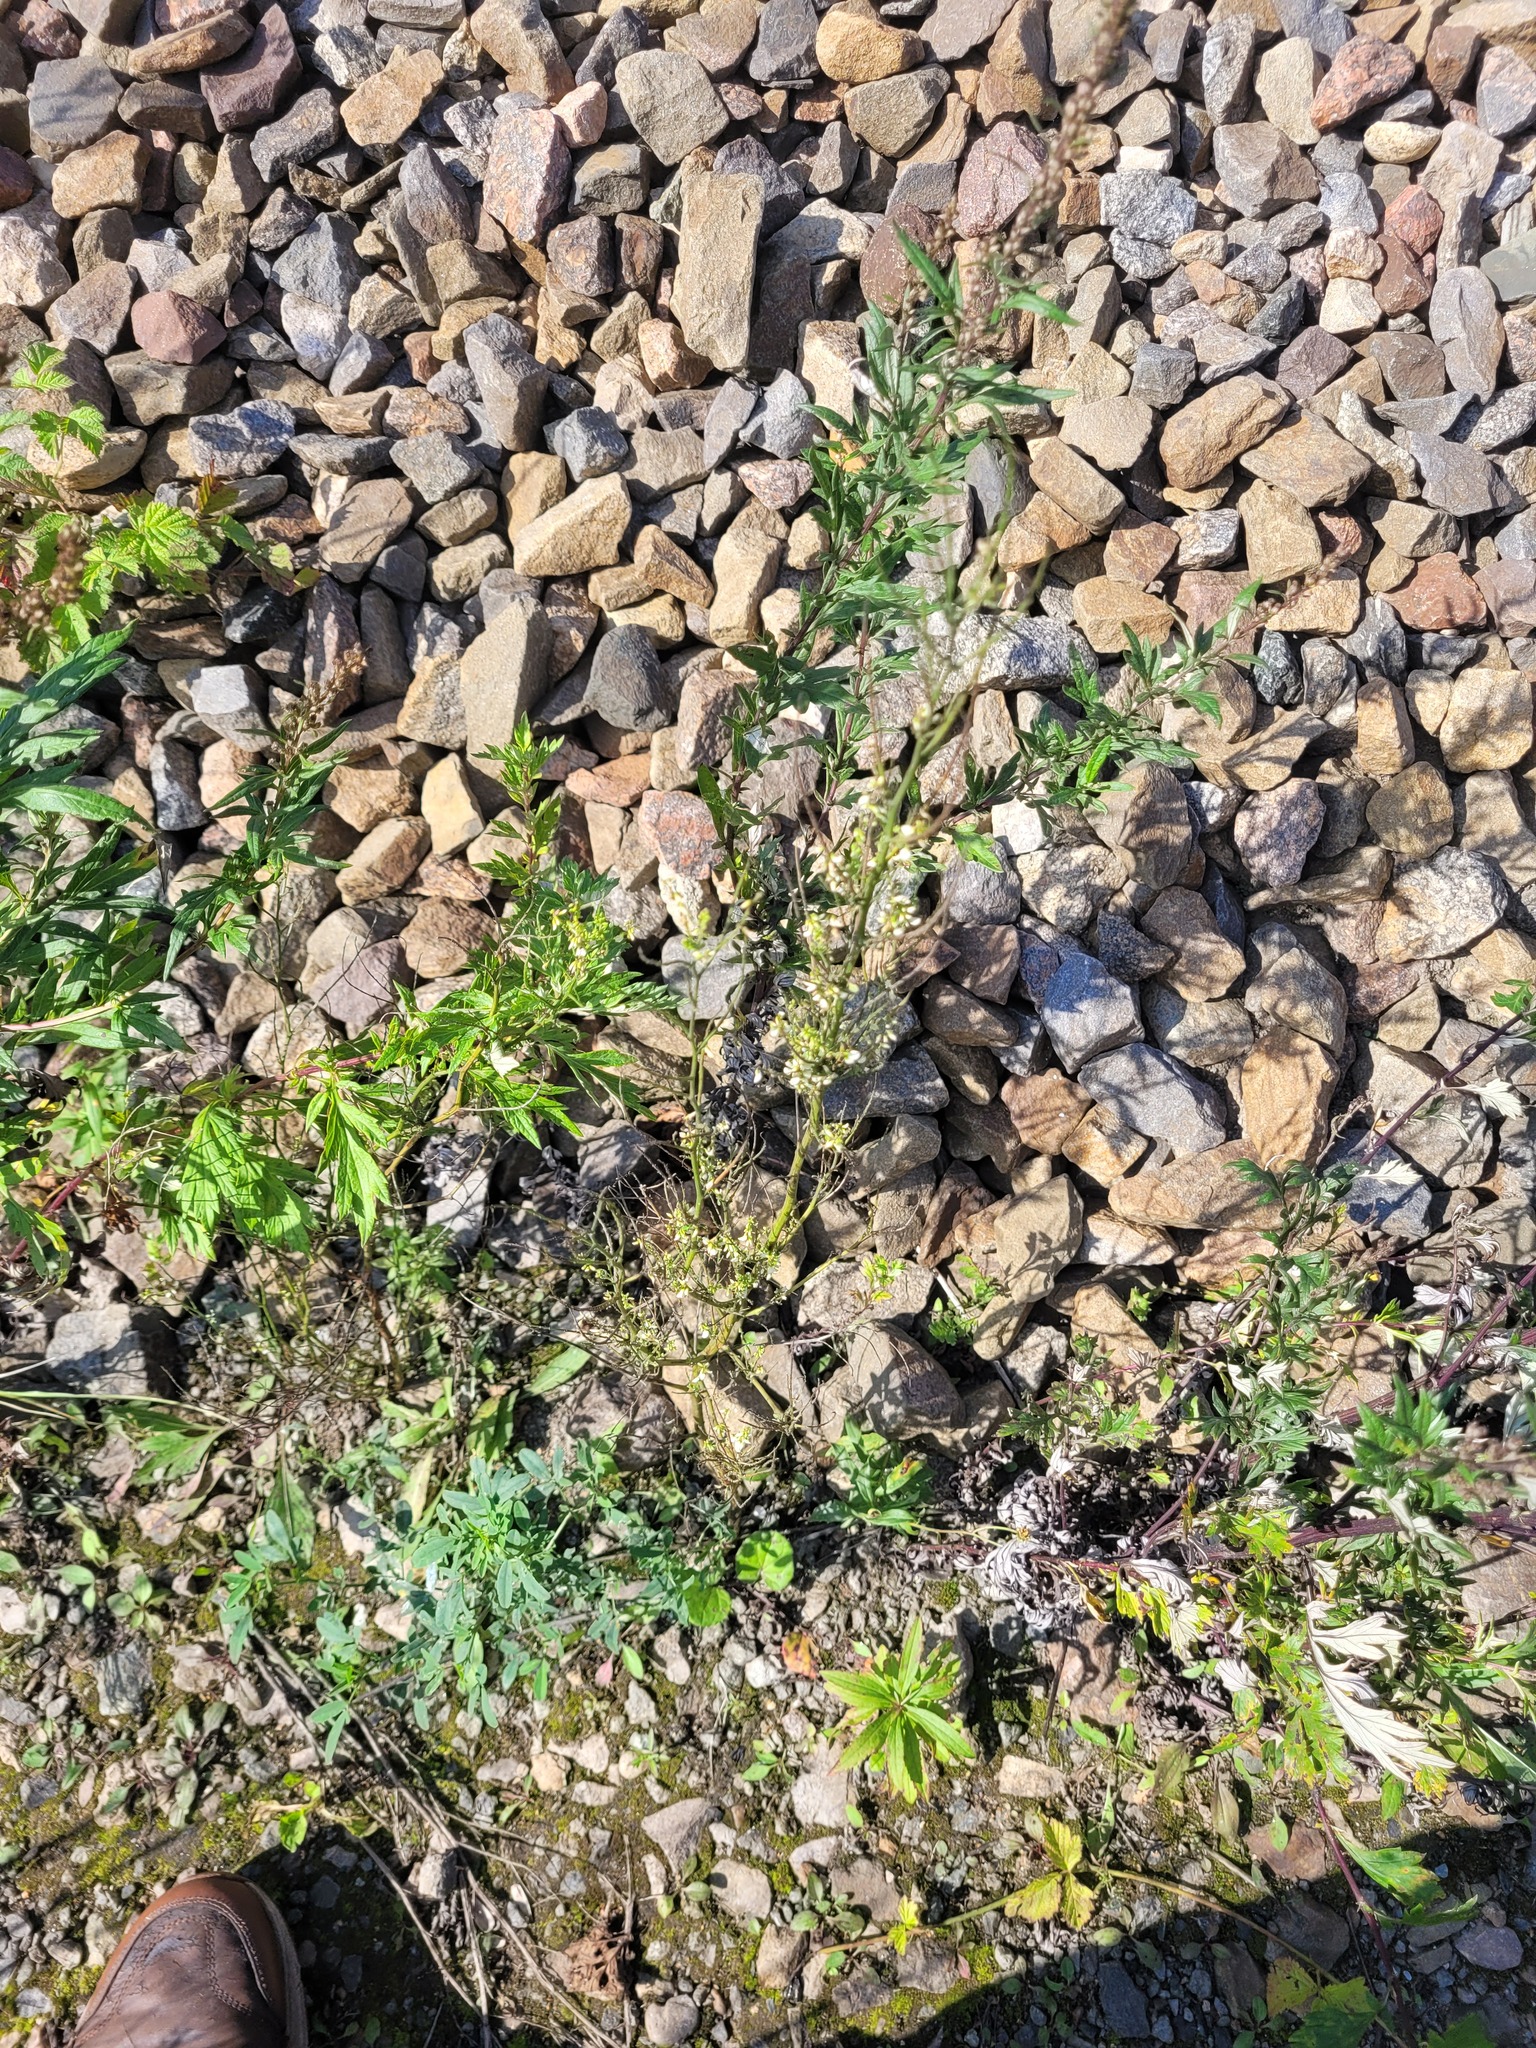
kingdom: Plantae
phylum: Tracheophyta
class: Magnoliopsida
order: Fabales
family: Fabaceae
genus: Melilotus
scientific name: Melilotus albus
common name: White melilot
